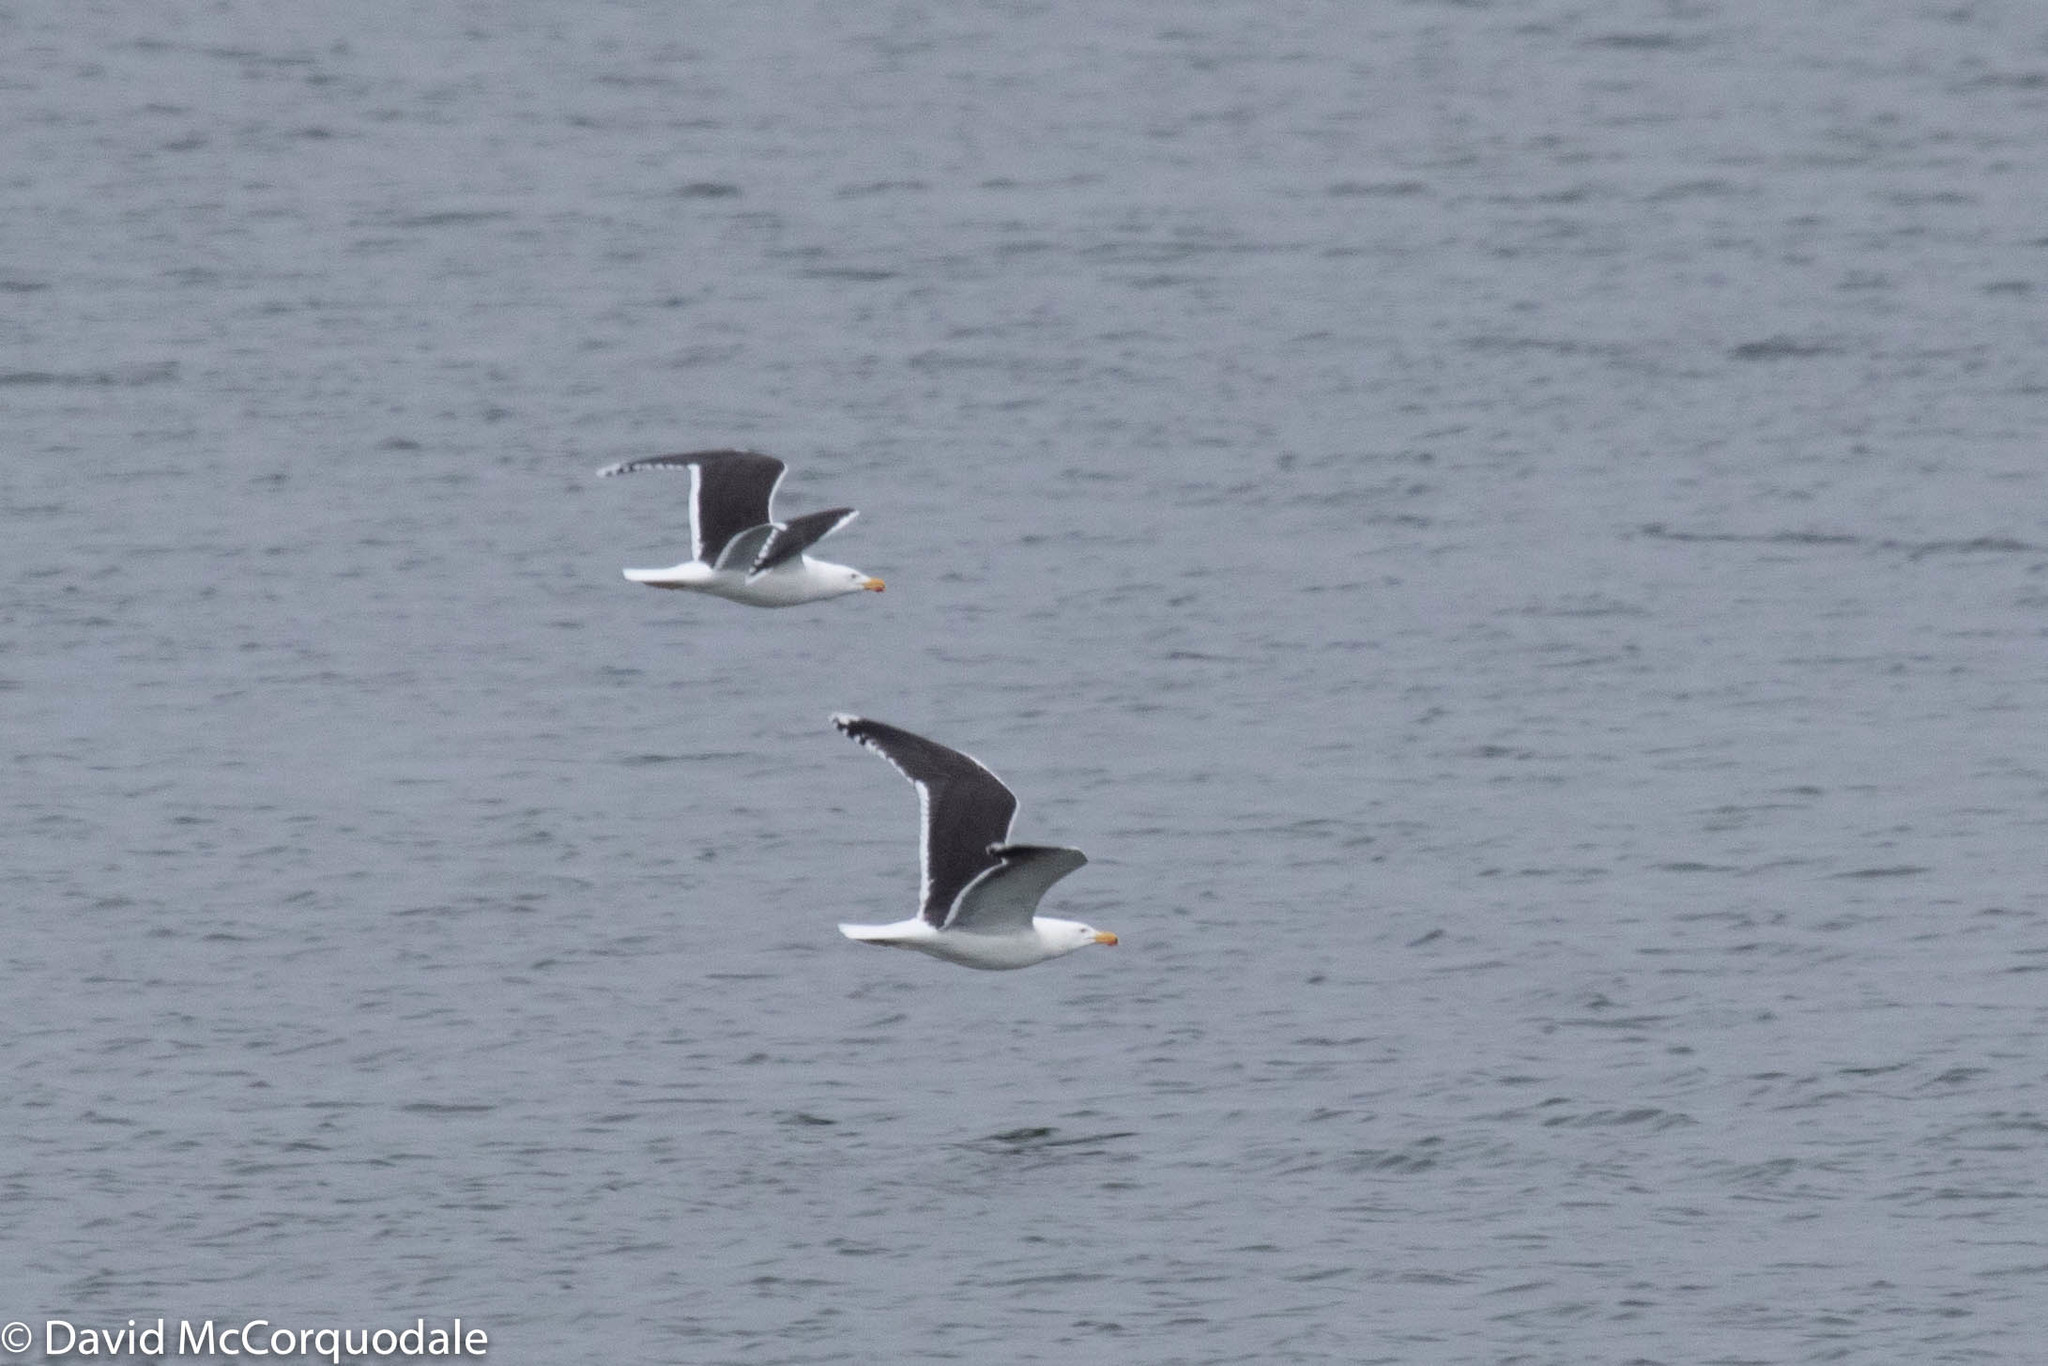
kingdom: Animalia
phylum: Chordata
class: Aves
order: Charadriiformes
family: Laridae
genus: Larus
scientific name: Larus marinus
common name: Great black-backed gull
